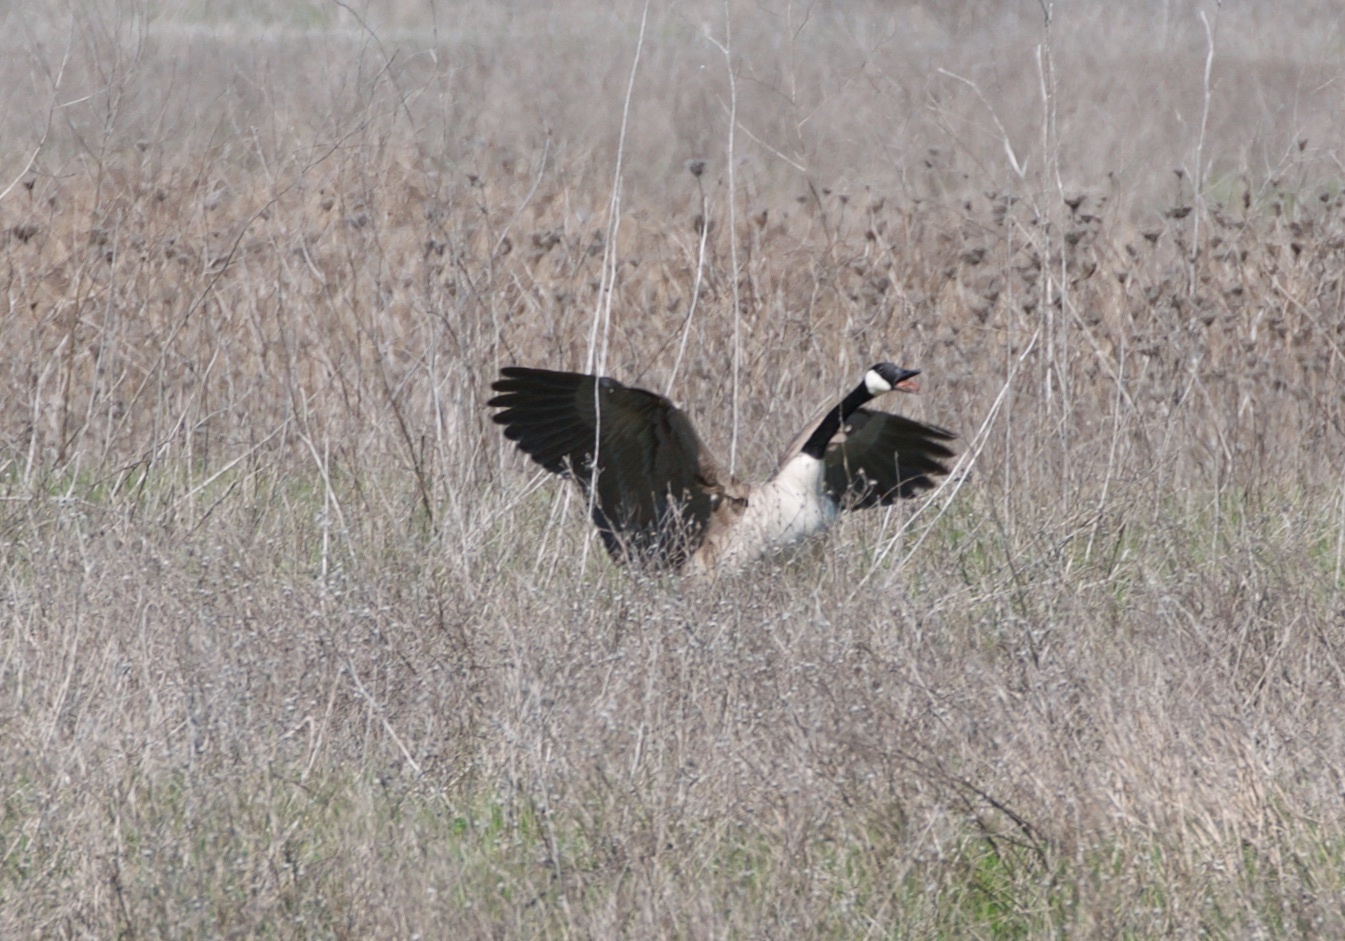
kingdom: Animalia
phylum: Chordata
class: Aves
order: Anseriformes
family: Anatidae
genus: Branta
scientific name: Branta canadensis
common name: Canada goose
